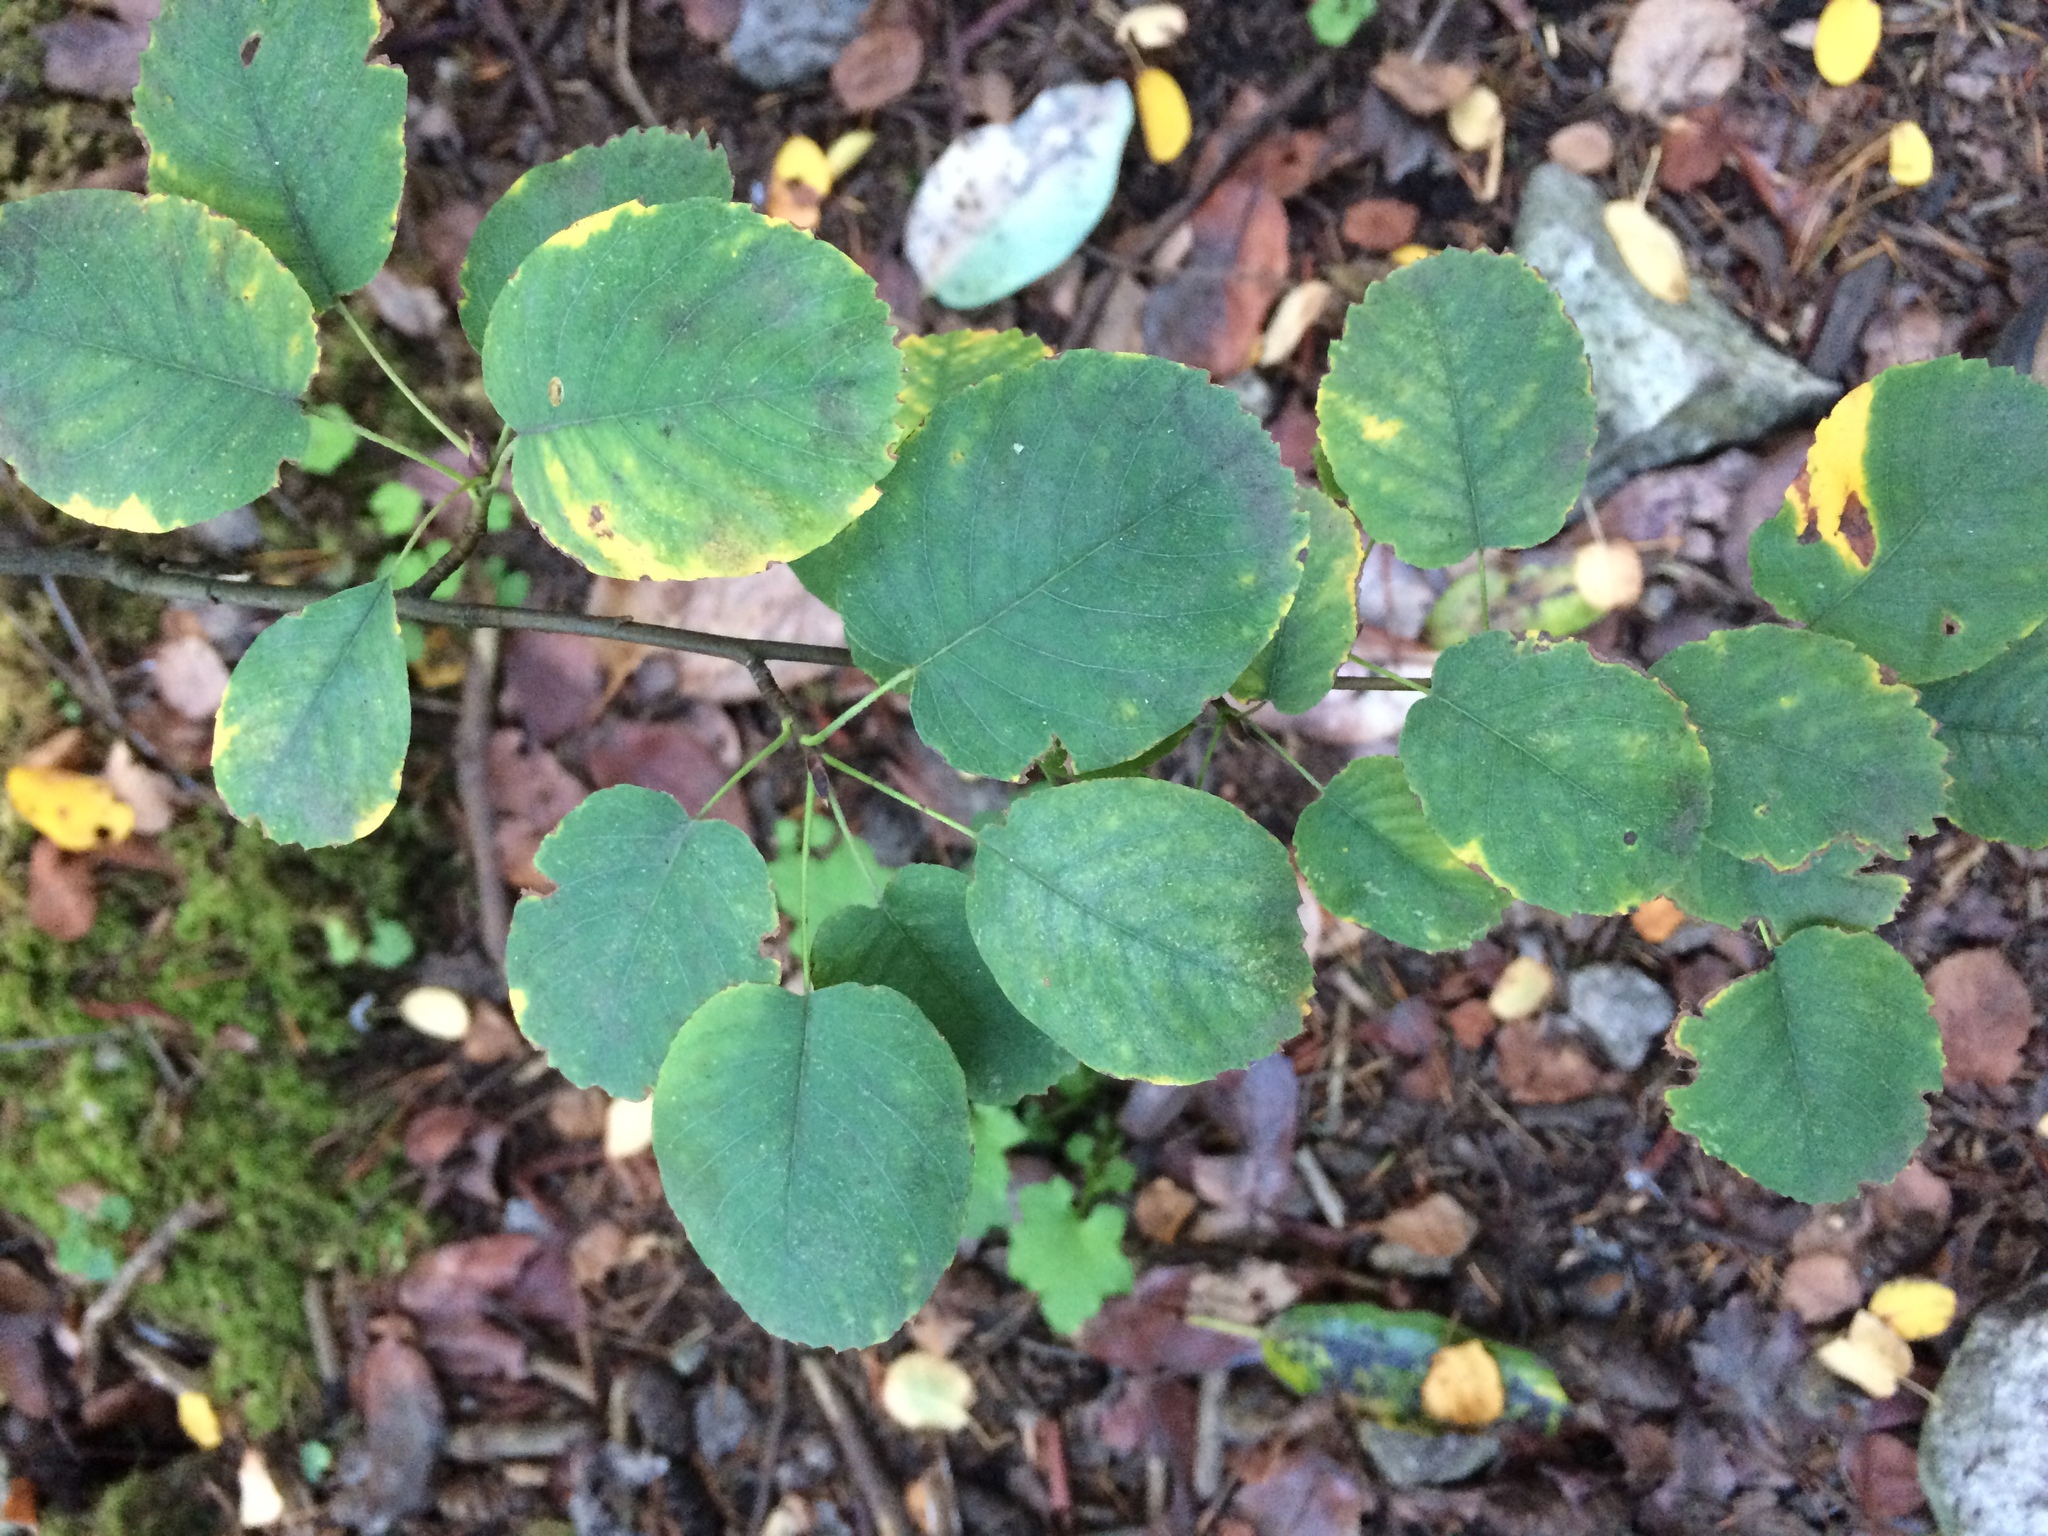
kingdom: Plantae
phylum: Tracheophyta
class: Magnoliopsida
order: Rosales
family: Rosaceae
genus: Amelanchier
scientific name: Amelanchier alnifolia
